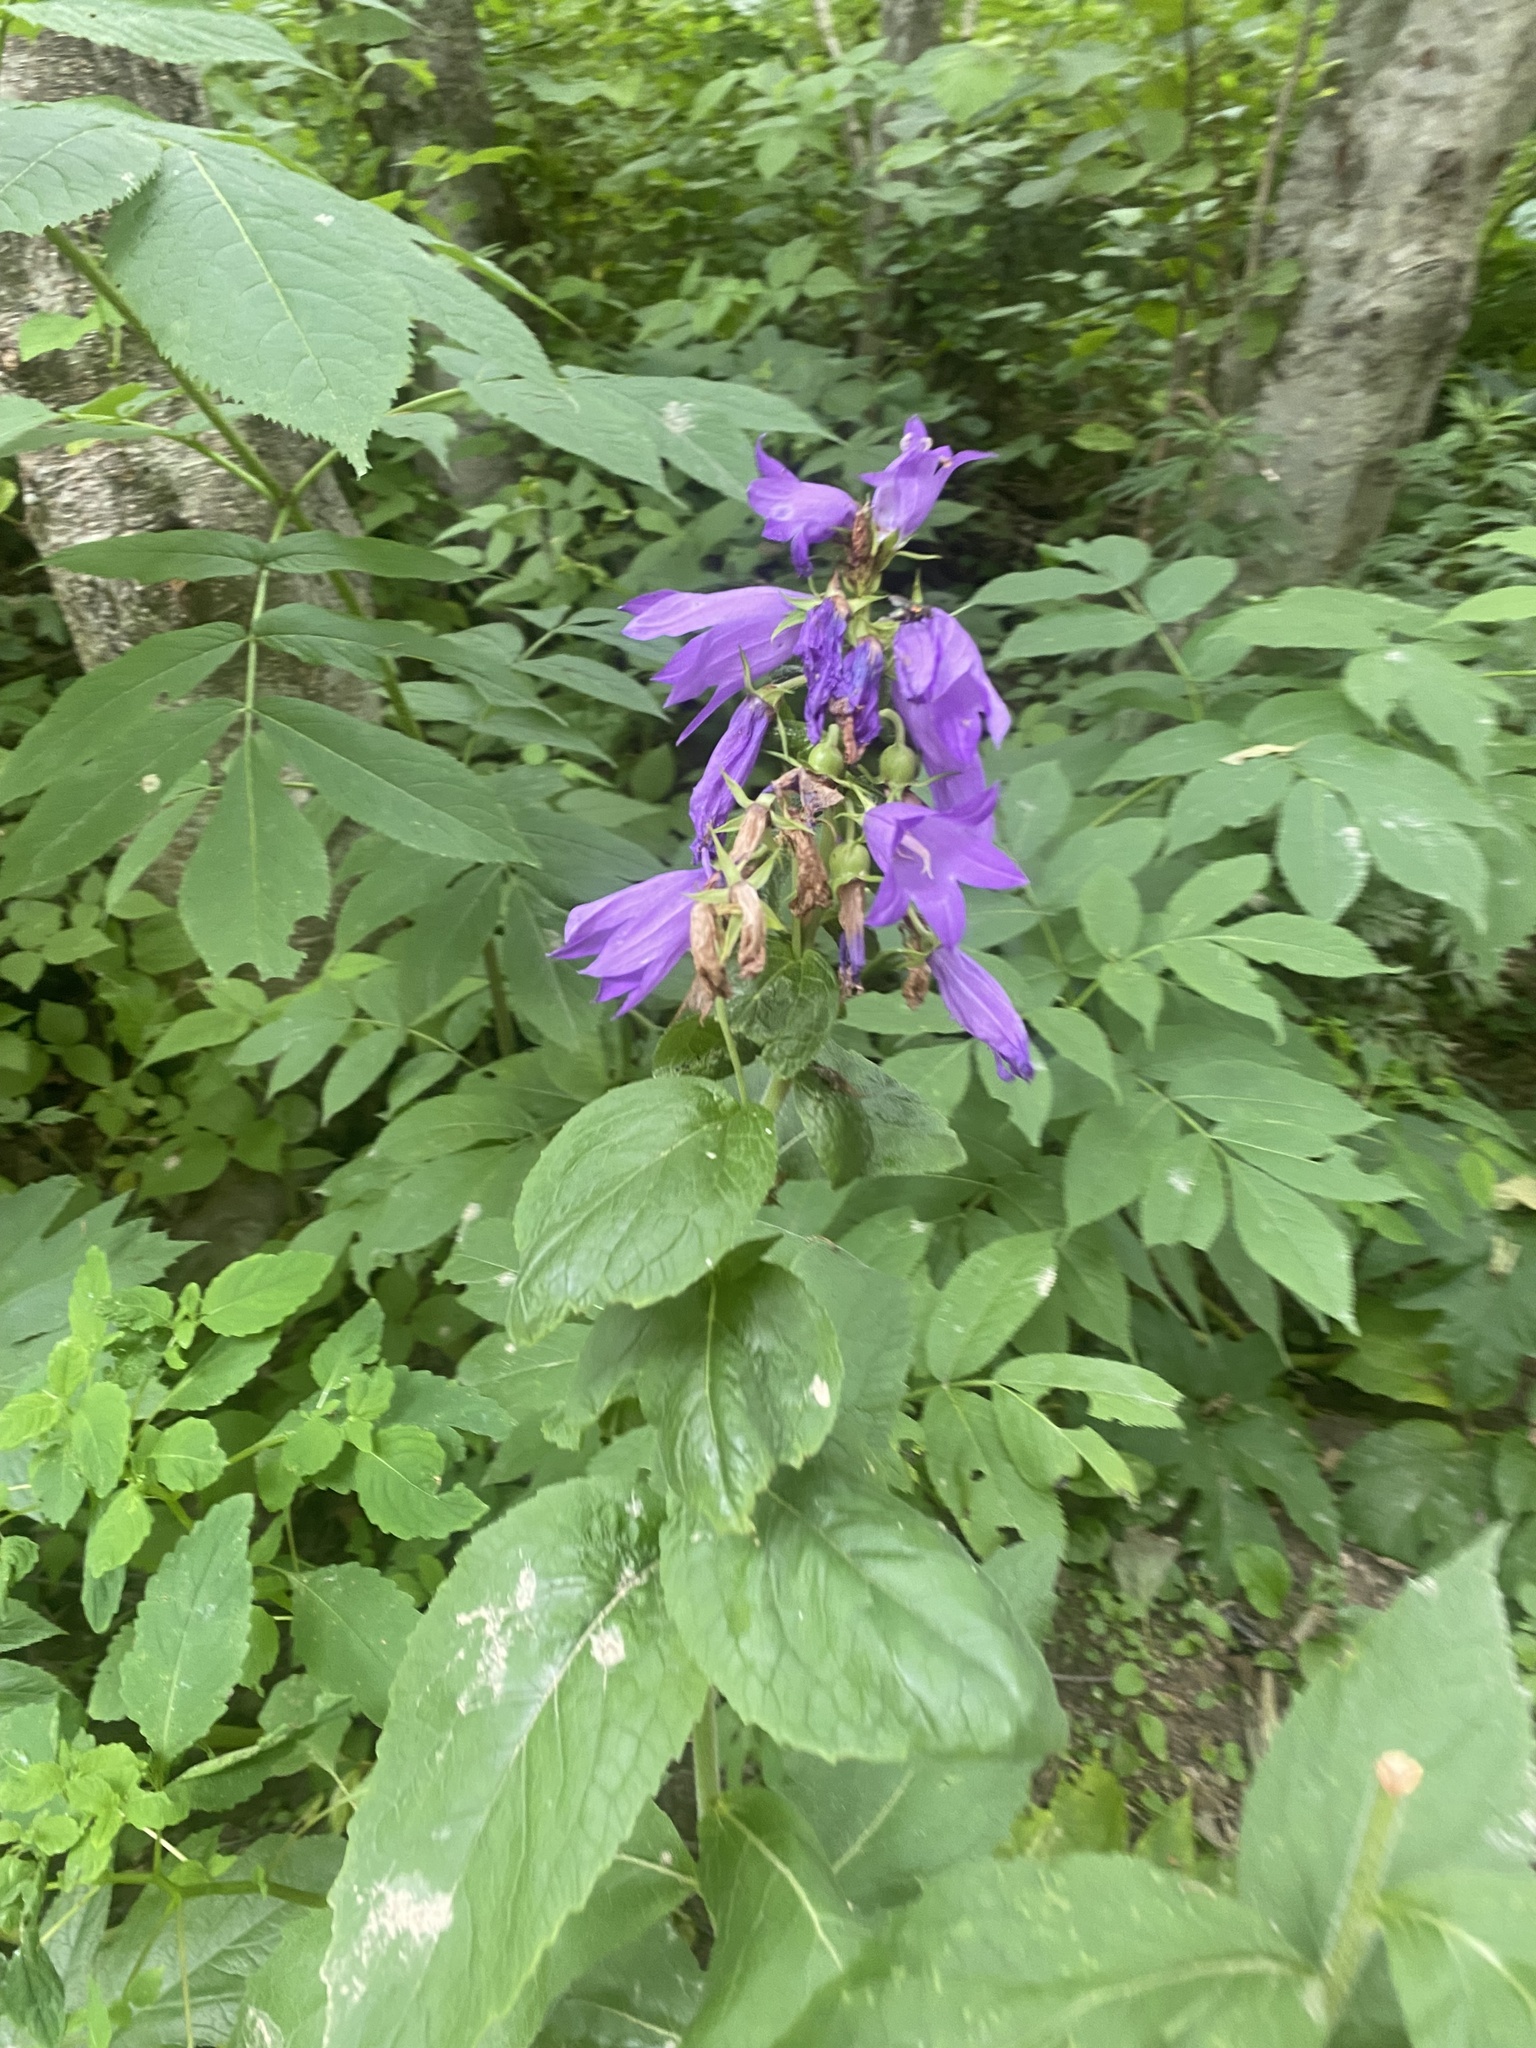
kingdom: Plantae
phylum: Tracheophyta
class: Magnoliopsida
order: Asterales
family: Campanulaceae
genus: Campanula
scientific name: Campanula latifolia
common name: Giant bellflower
